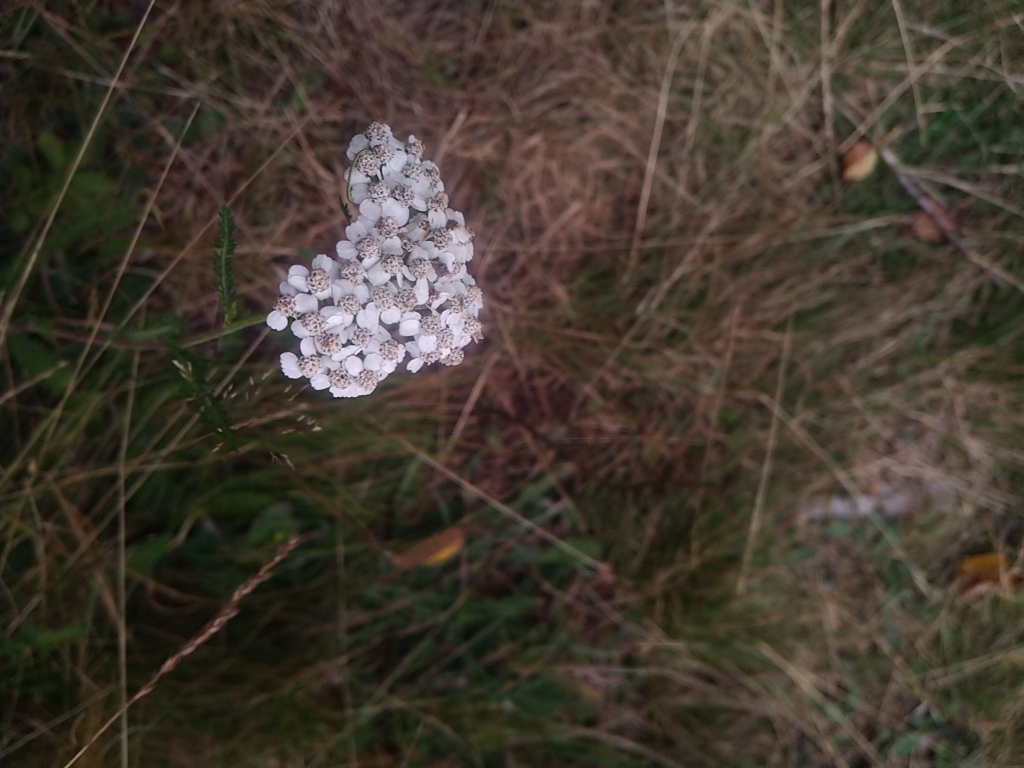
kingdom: Plantae
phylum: Tracheophyta
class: Magnoliopsida
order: Asterales
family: Asteraceae
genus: Achillea
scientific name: Achillea millefolium
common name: Yarrow
